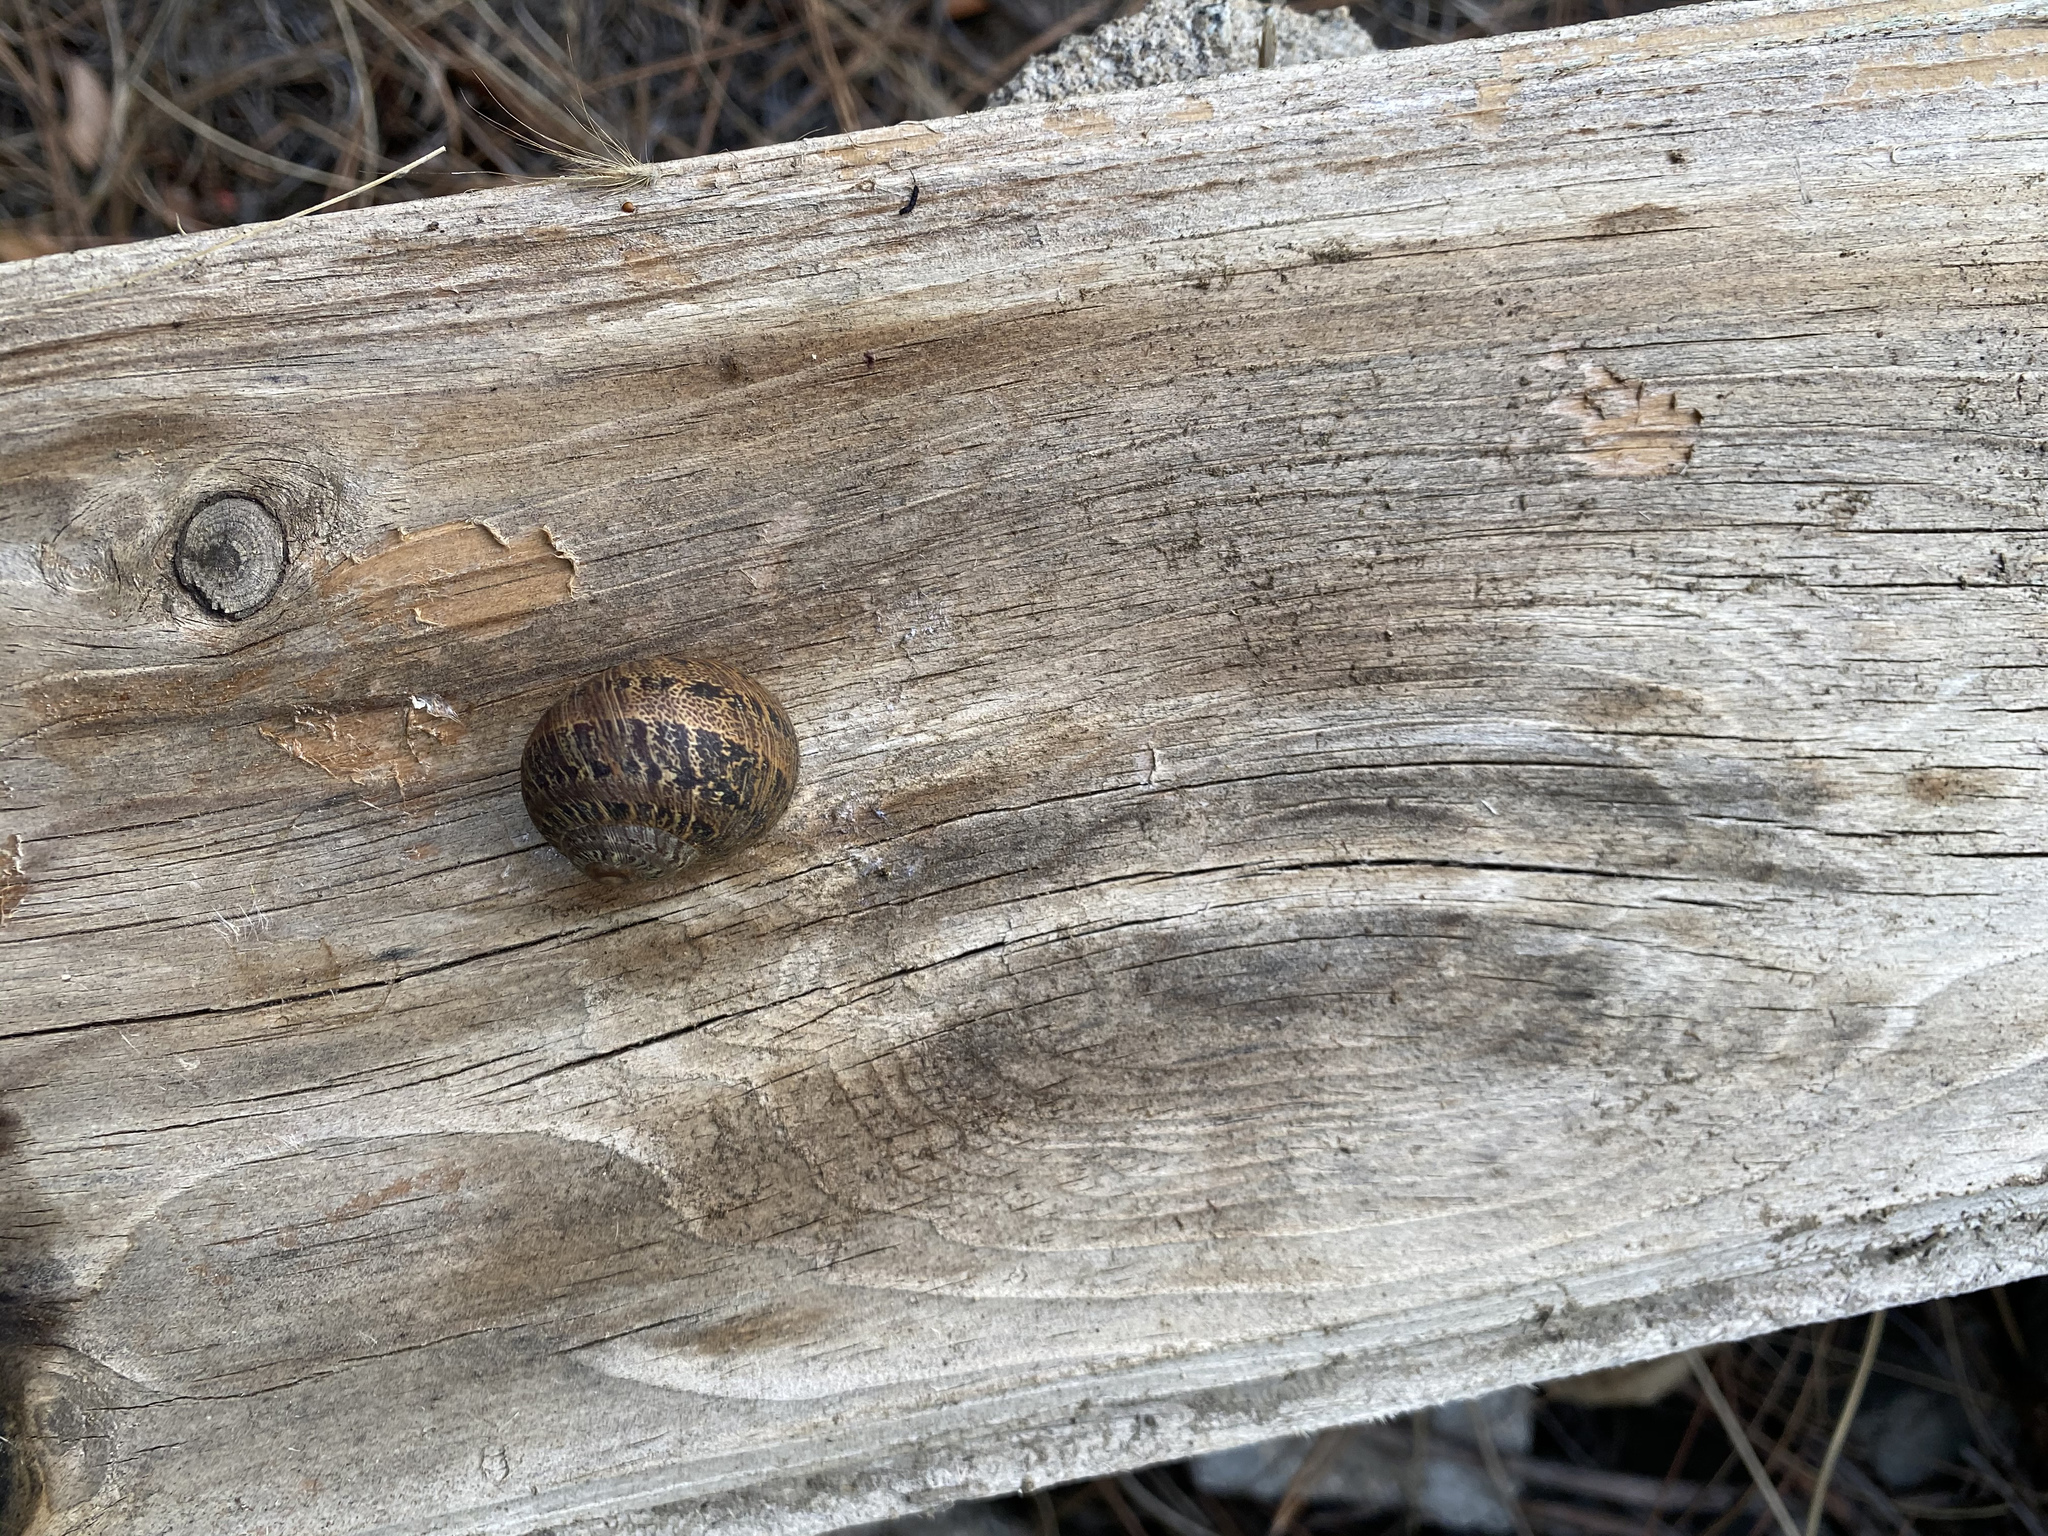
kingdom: Animalia
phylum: Mollusca
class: Gastropoda
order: Stylommatophora
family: Helicidae
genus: Cornu
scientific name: Cornu aspersum
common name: Brown garden snail
